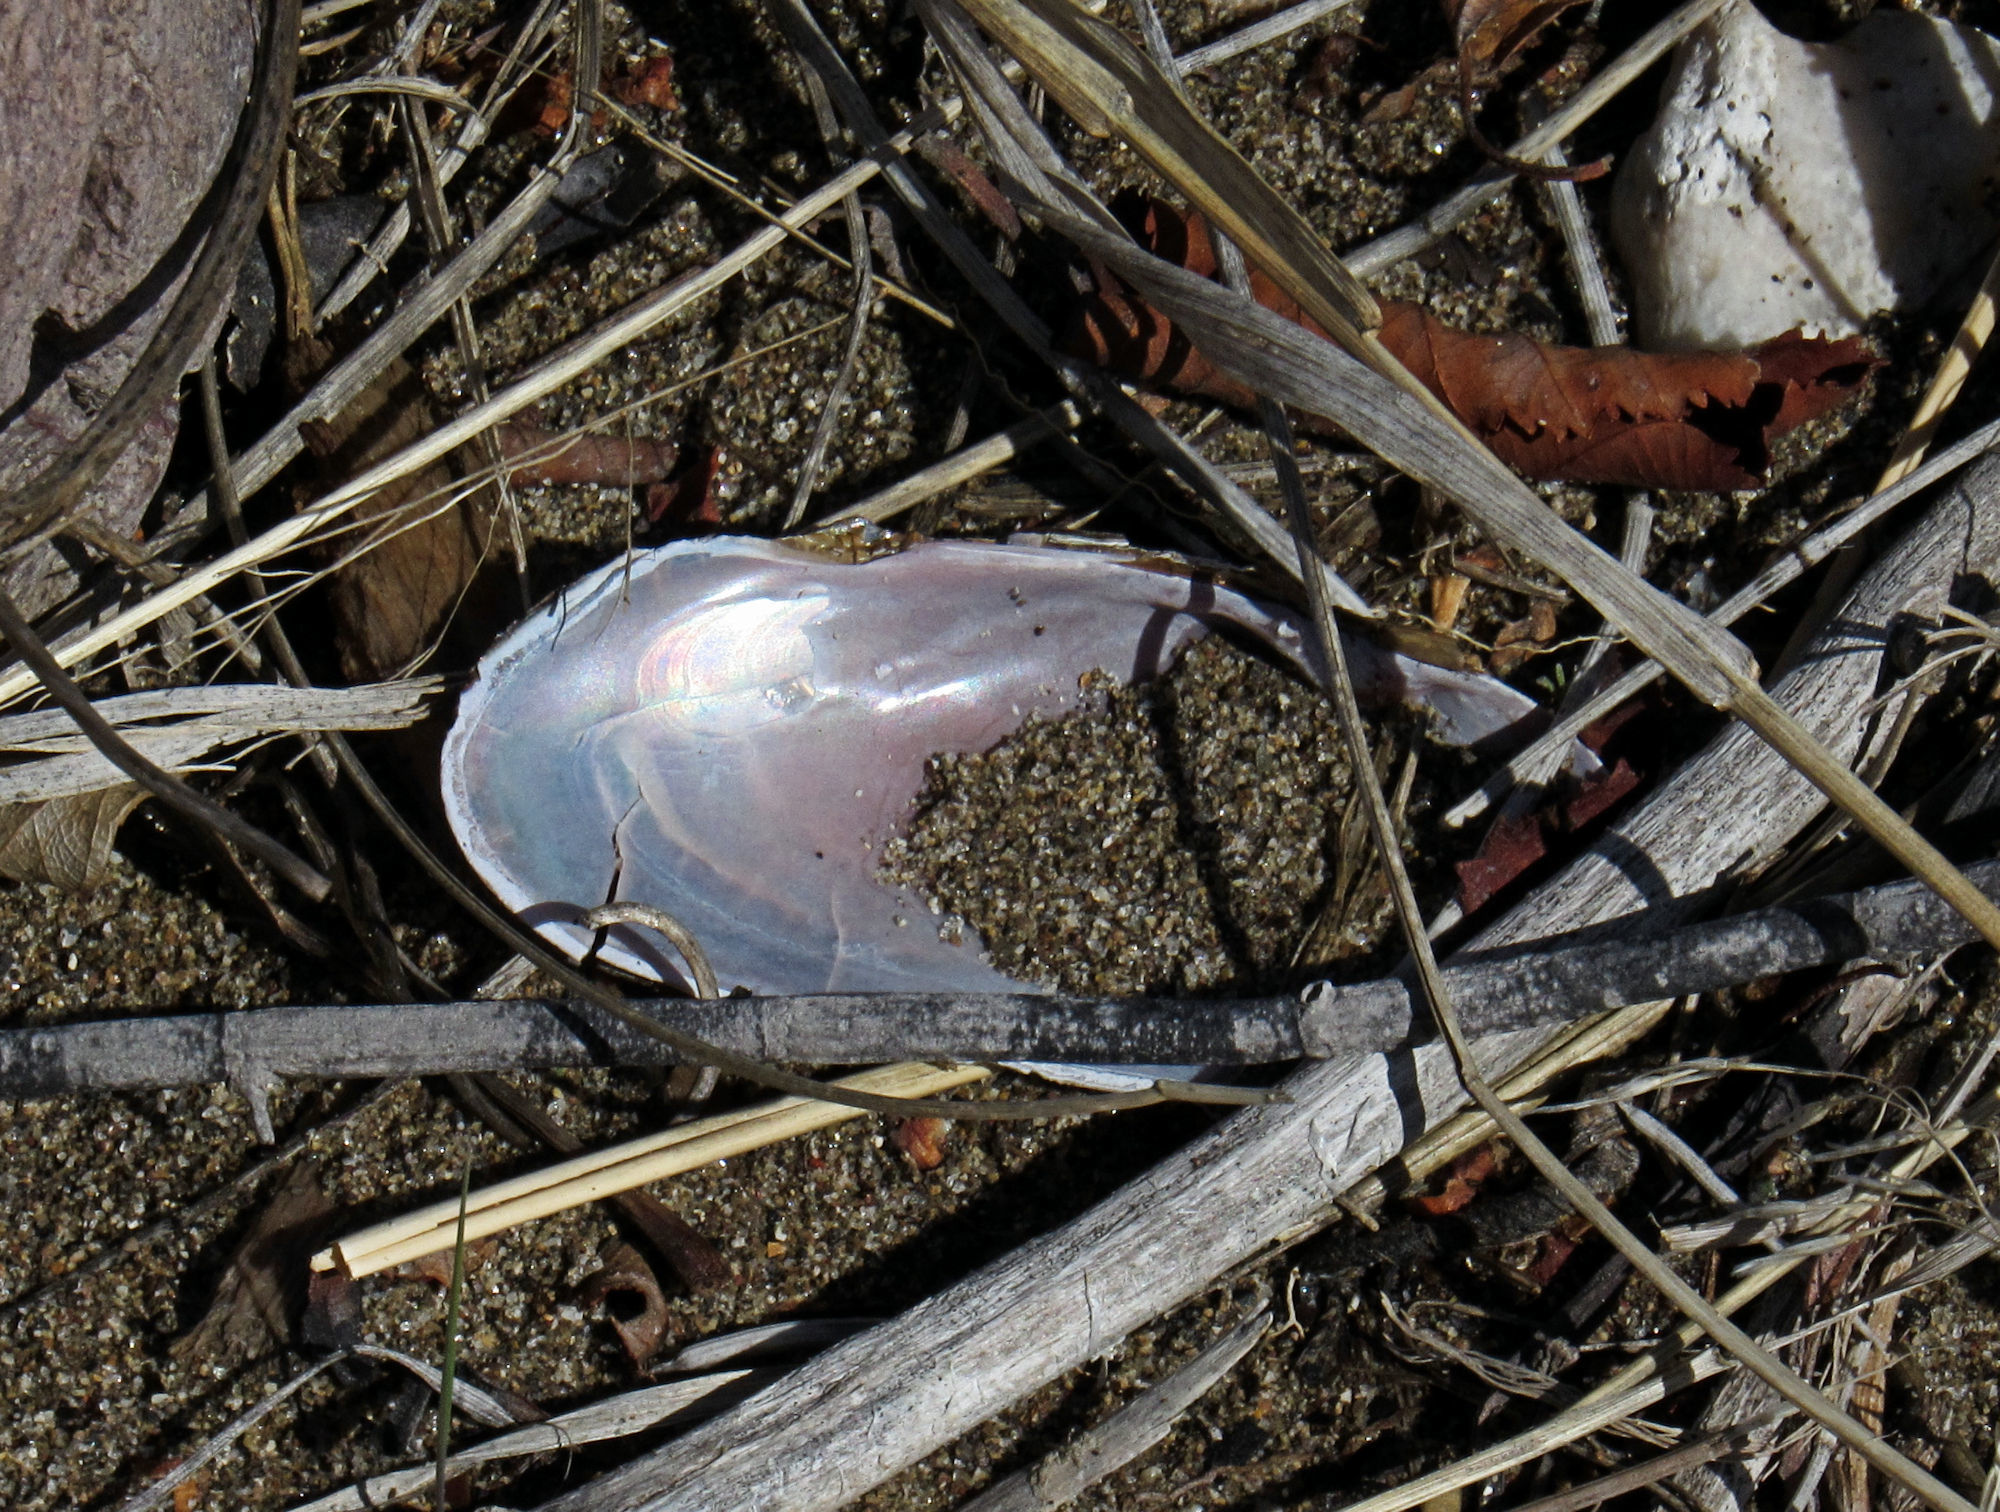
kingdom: Animalia
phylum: Mollusca
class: Bivalvia
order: Unionida
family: Margaritiferidae
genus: Margaritifera
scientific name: Margaritifera falcata
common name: Western pearlshell
